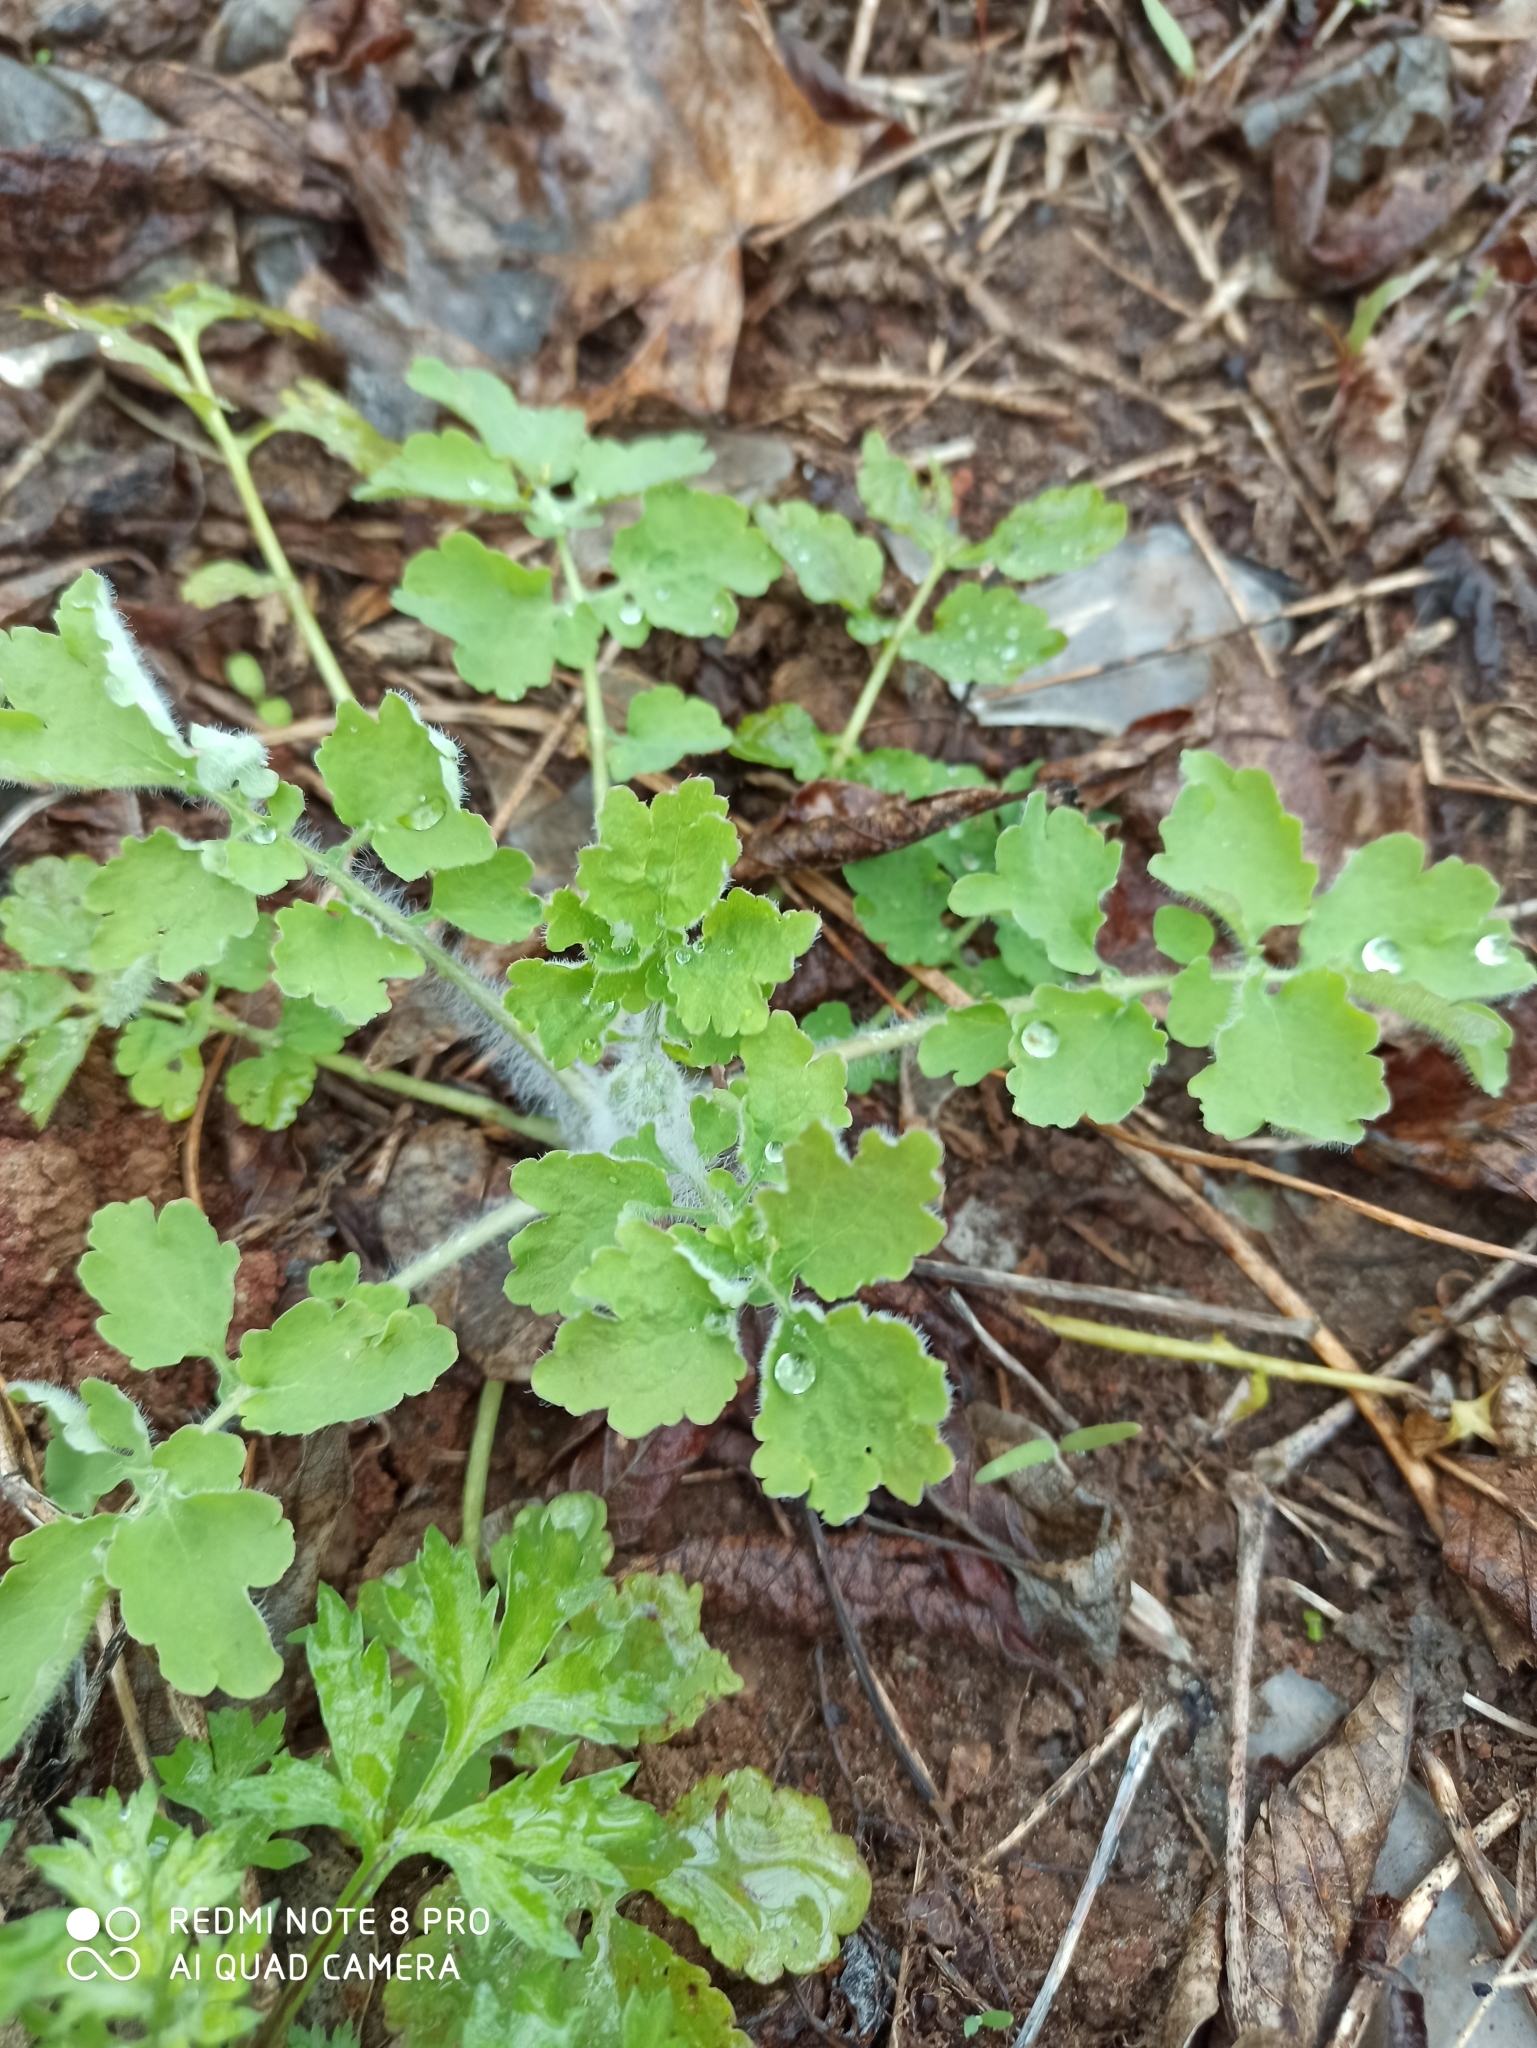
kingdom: Plantae
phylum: Tracheophyta
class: Magnoliopsida
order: Ranunculales
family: Papaveraceae
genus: Chelidonium
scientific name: Chelidonium majus
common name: Greater celandine
